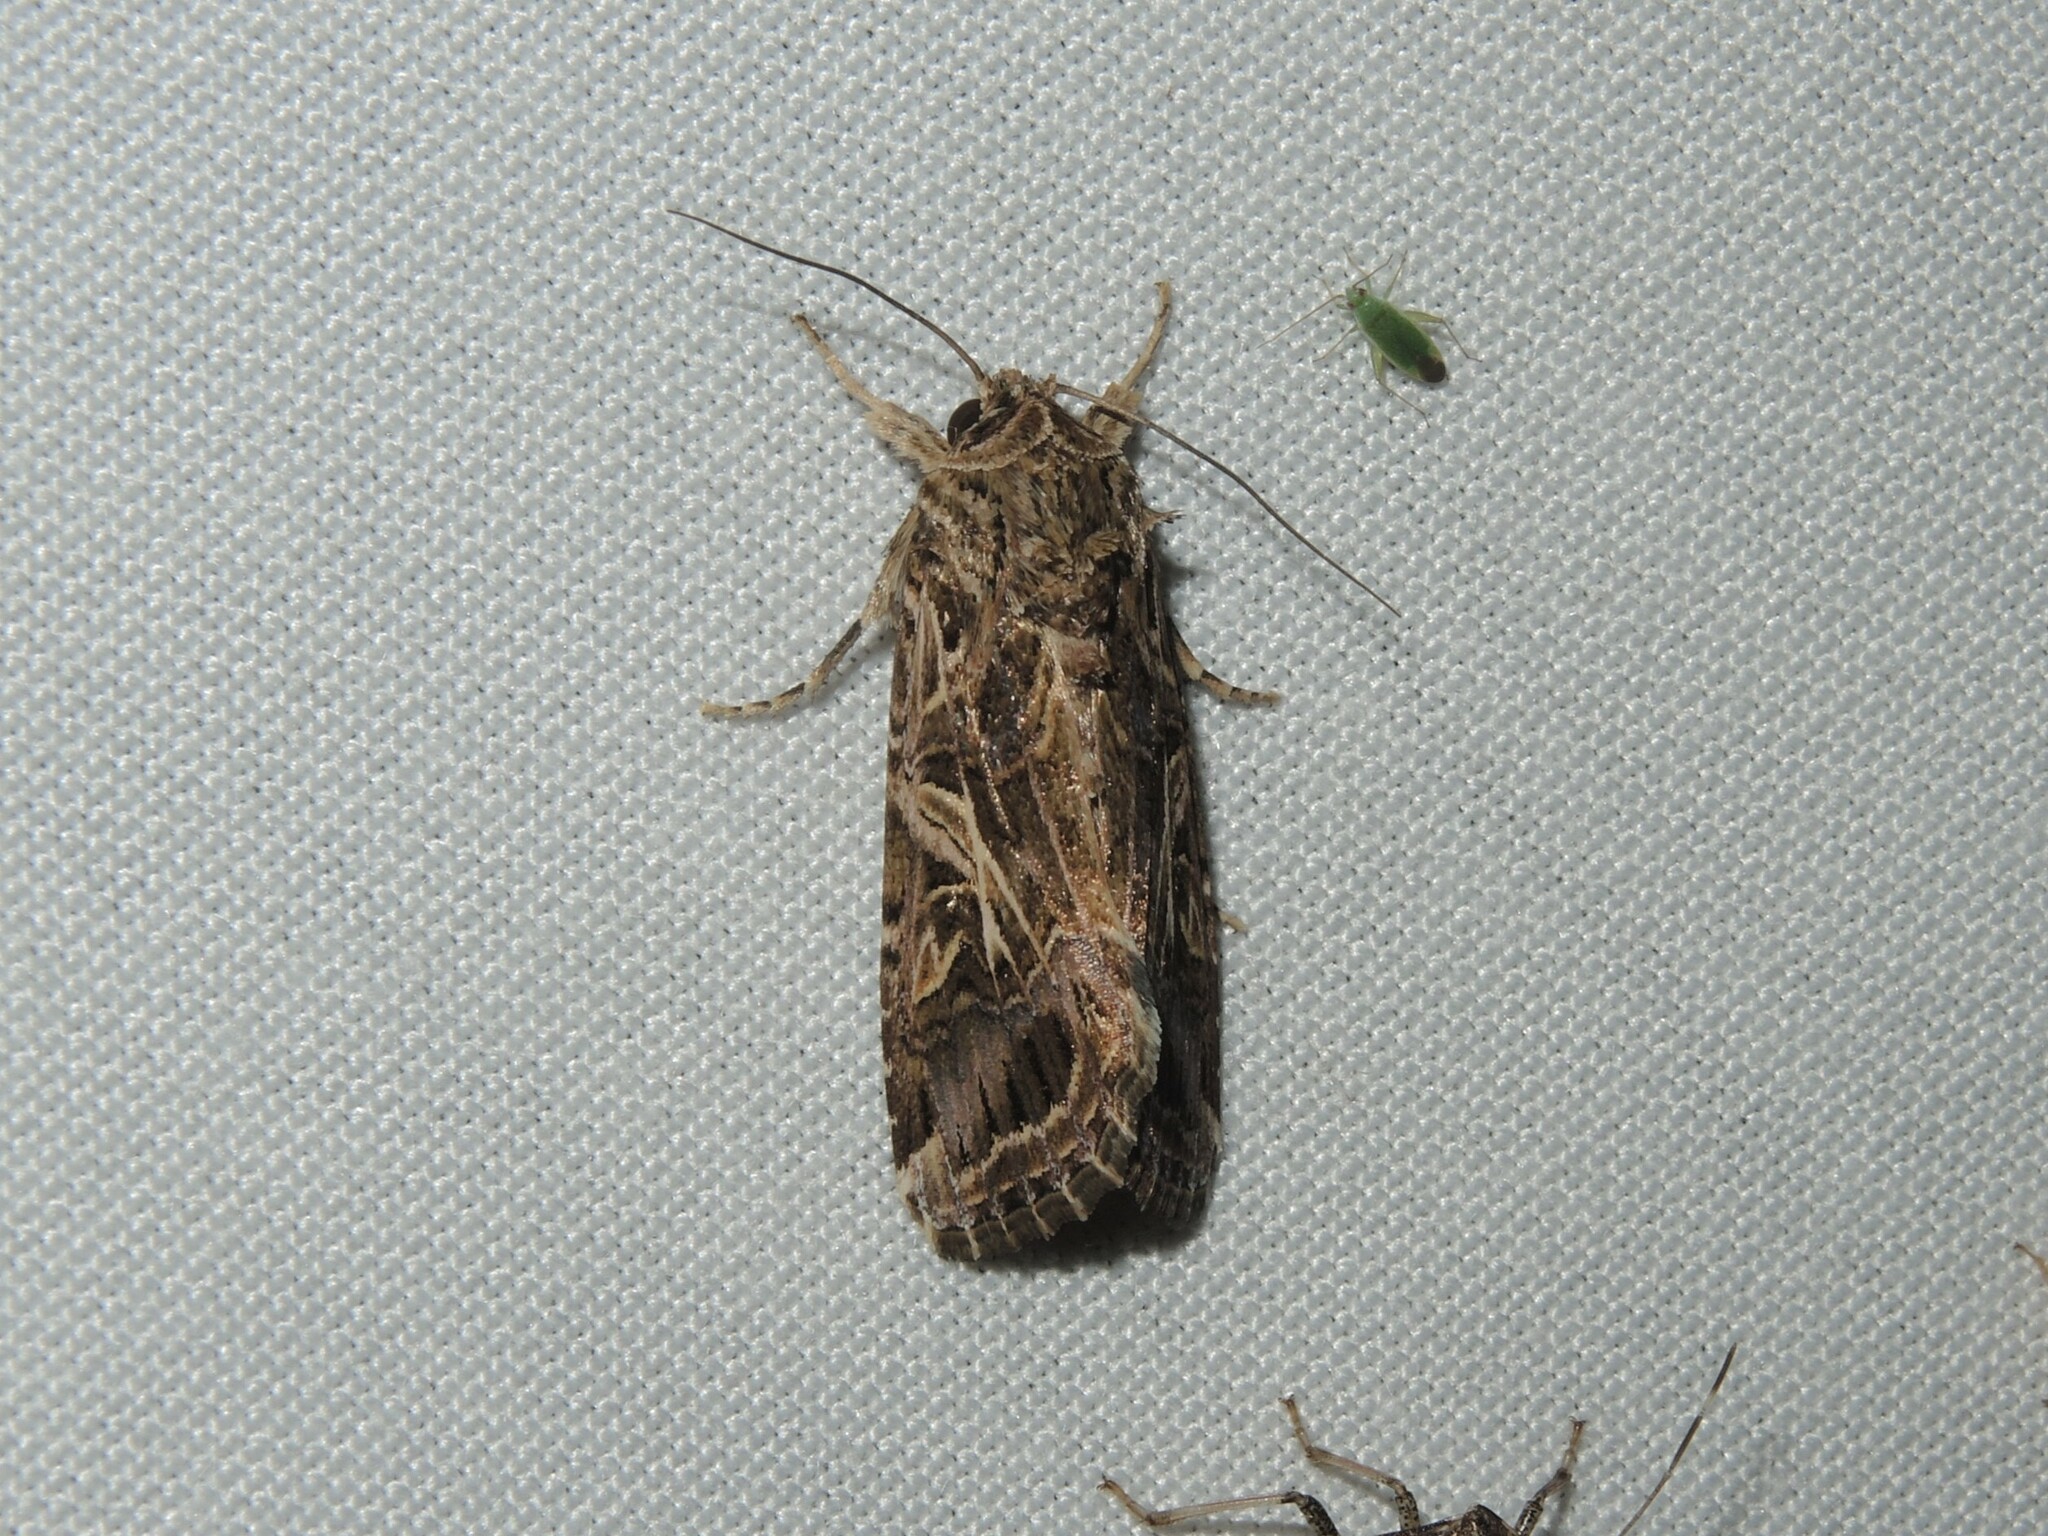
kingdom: Animalia
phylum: Arthropoda
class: Insecta
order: Lepidoptera
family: Noctuidae
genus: Spodoptera
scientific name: Spodoptera litura
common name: Asian cotton leafworm
